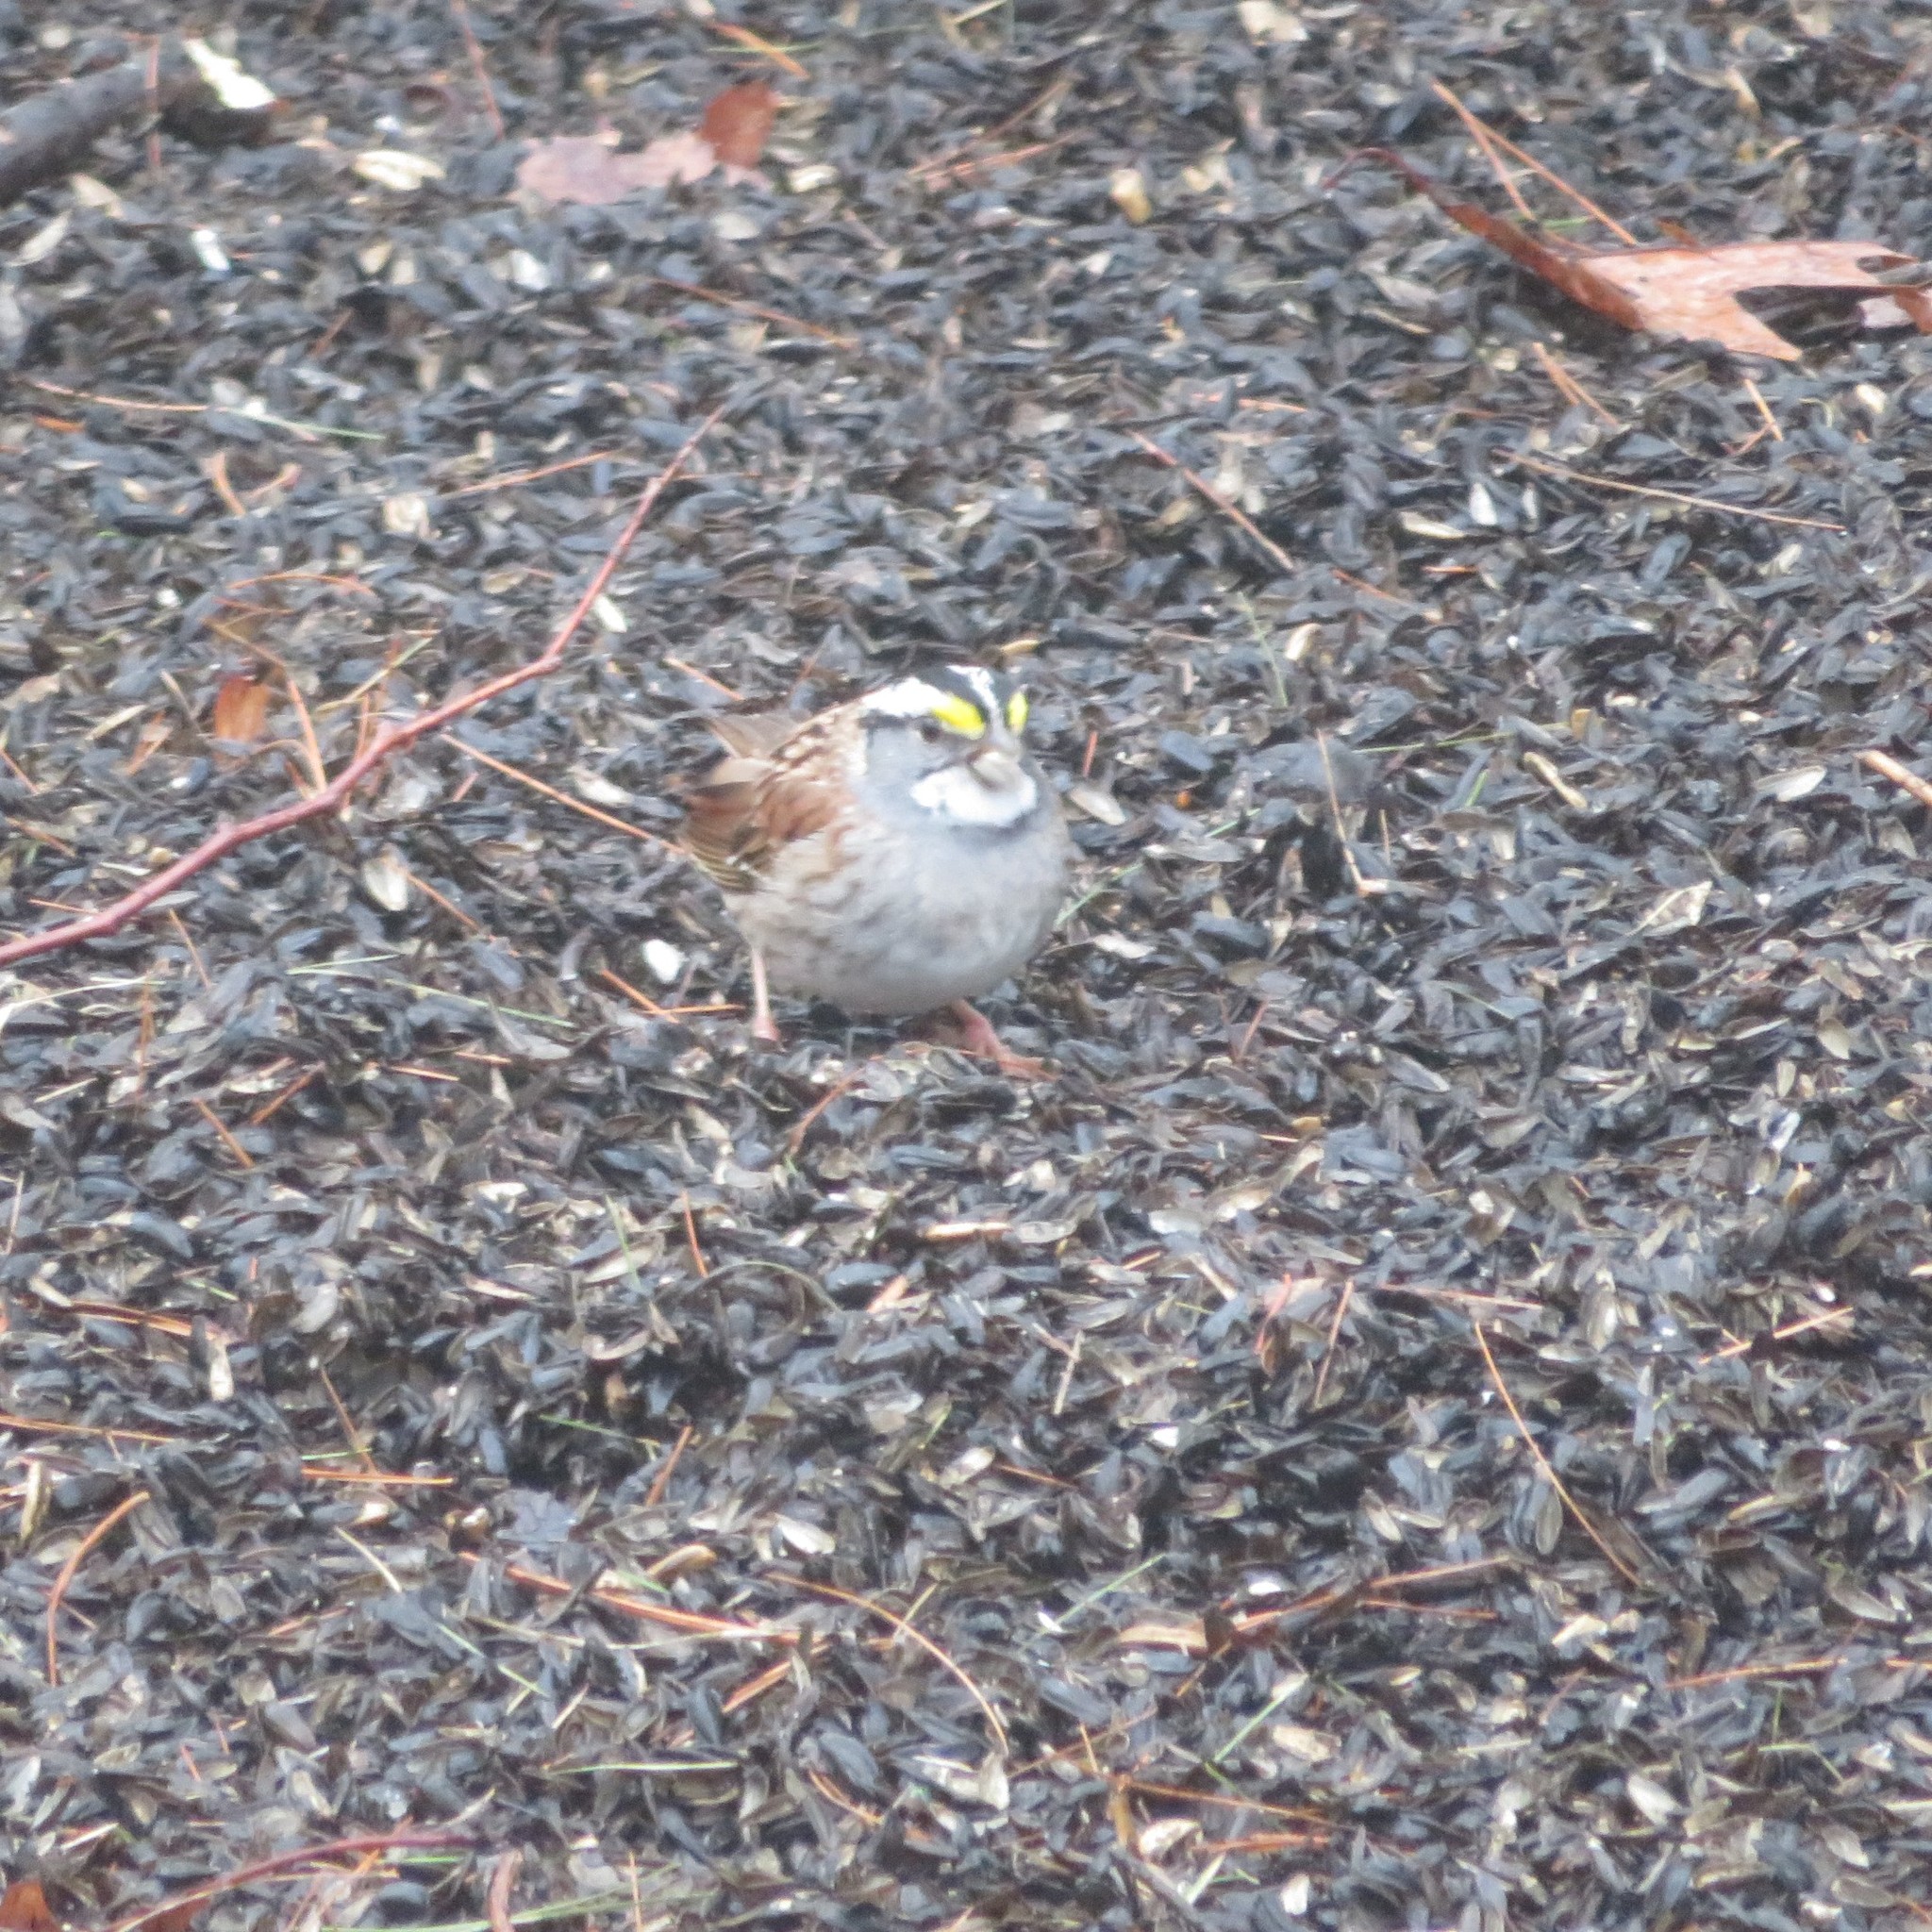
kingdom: Animalia
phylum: Chordata
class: Aves
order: Passeriformes
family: Passerellidae
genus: Zonotrichia
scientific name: Zonotrichia albicollis
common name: White-throated sparrow
